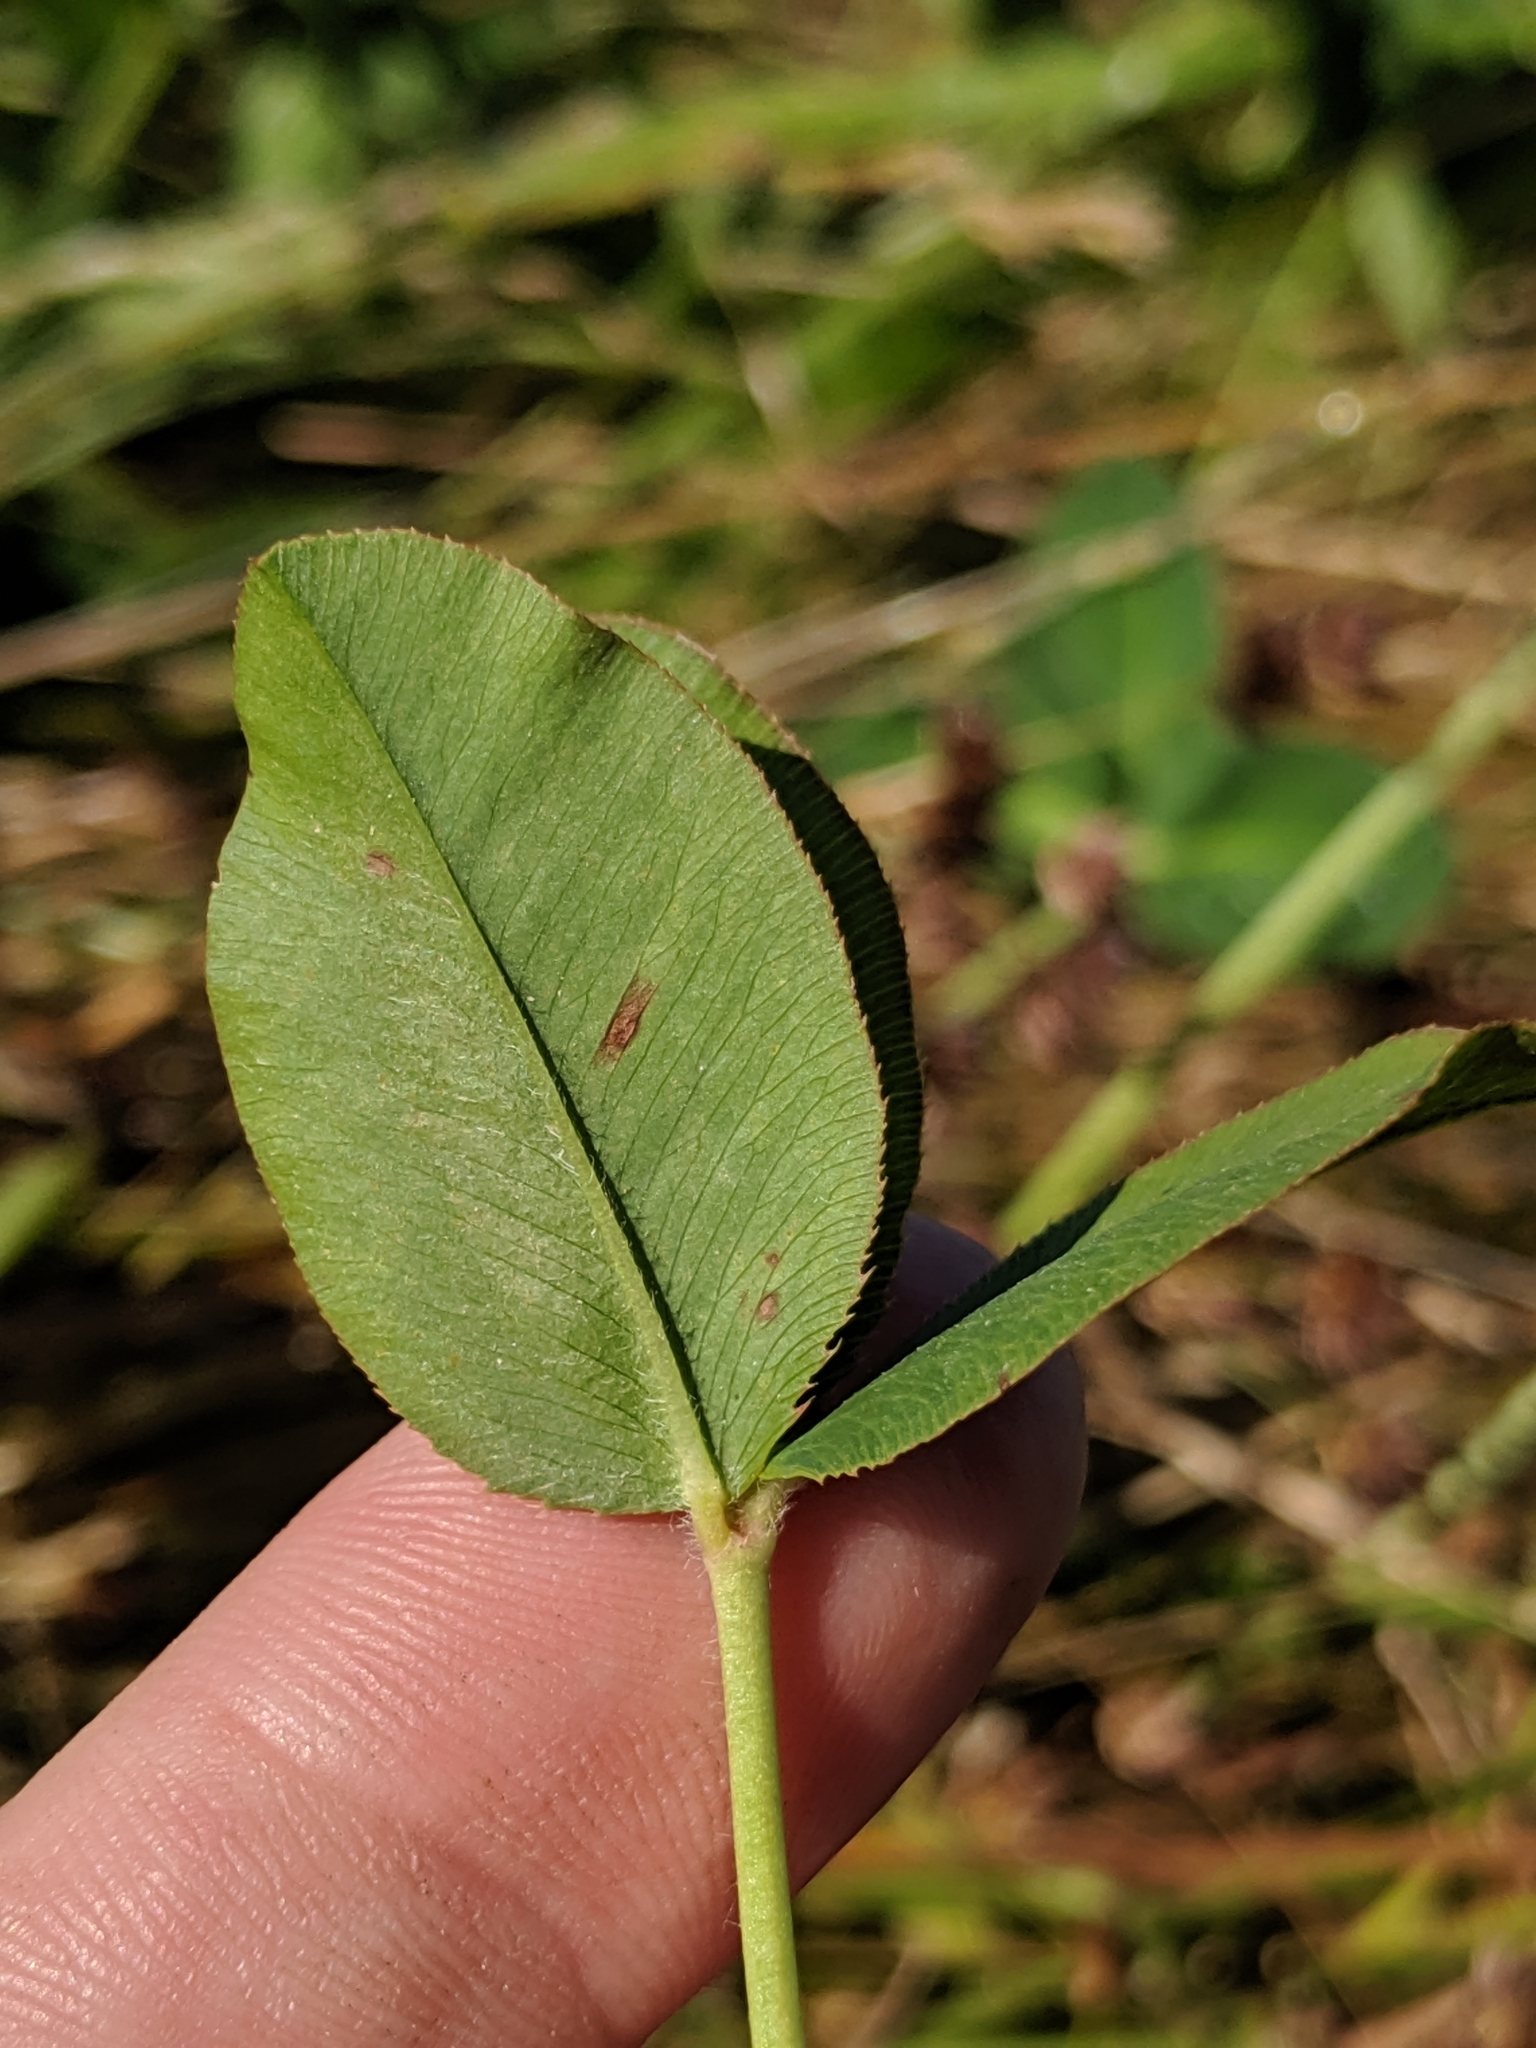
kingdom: Plantae
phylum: Tracheophyta
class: Magnoliopsida
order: Fabales
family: Fabaceae
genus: Trifolium
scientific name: Trifolium fragiferum
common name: Strawberry clover
